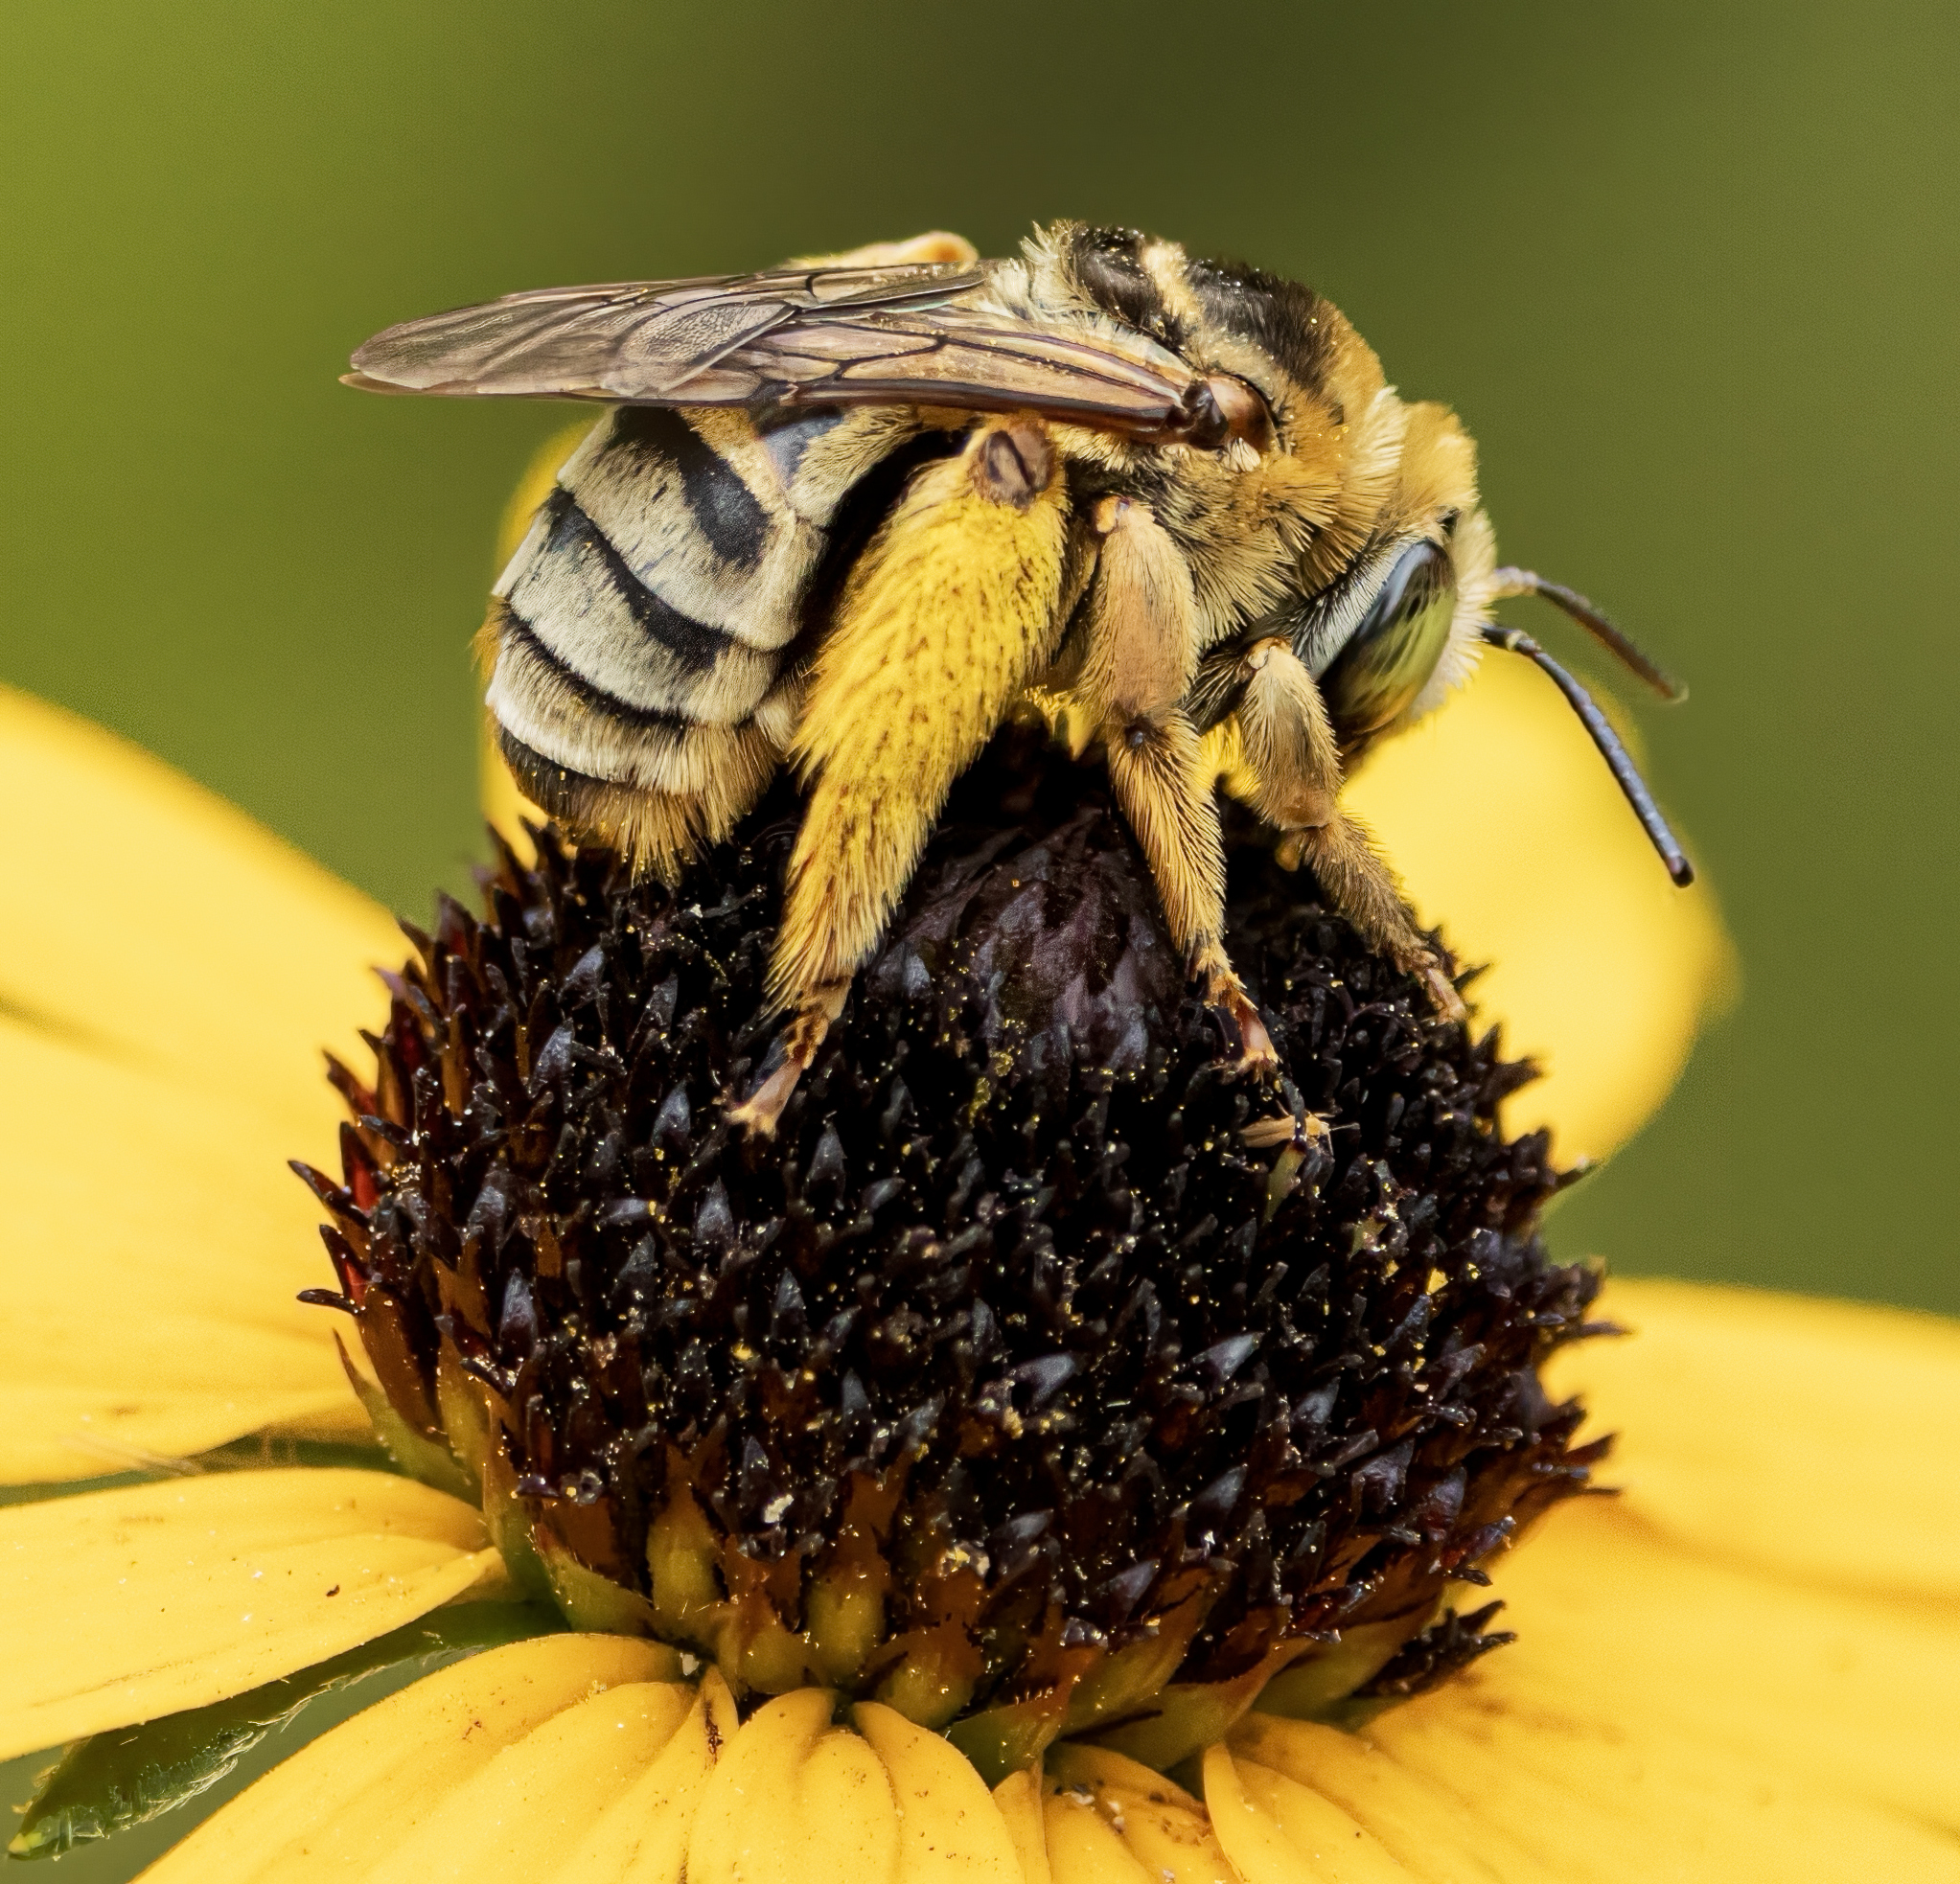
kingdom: Animalia
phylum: Arthropoda
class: Insecta
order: Hymenoptera
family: Apidae
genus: Svastra
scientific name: Svastra petulca
